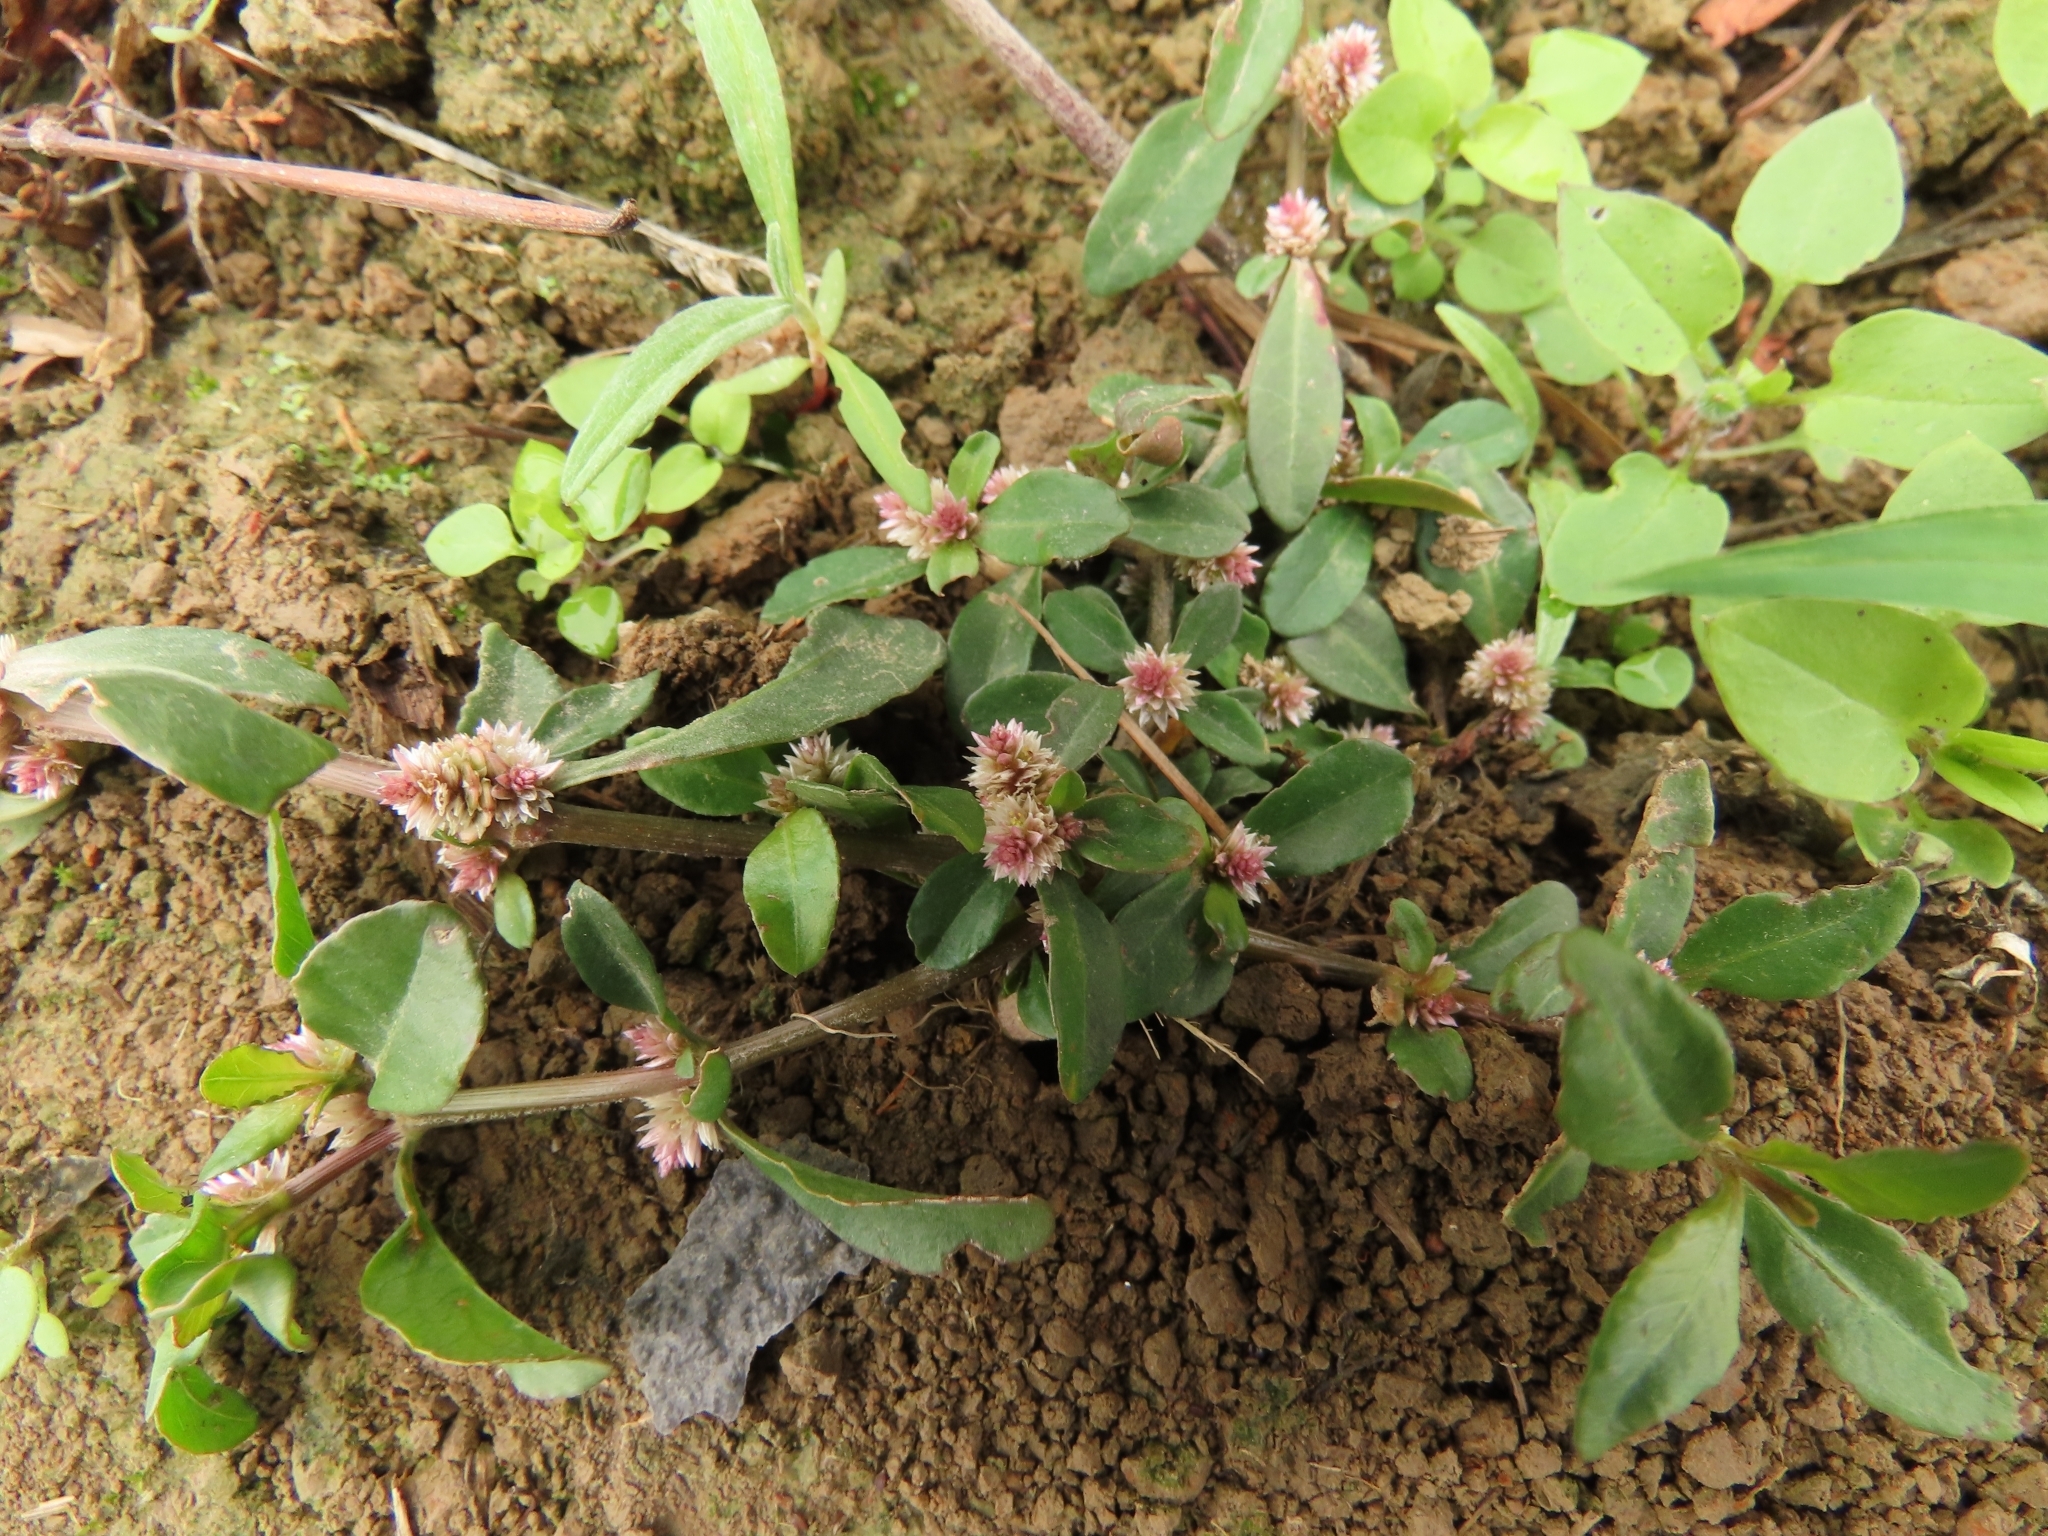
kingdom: Plantae
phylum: Tracheophyta
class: Magnoliopsida
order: Caryophyllales
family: Amaranthaceae
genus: Alternanthera
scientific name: Alternanthera sessilis
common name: Sessile joyweed
